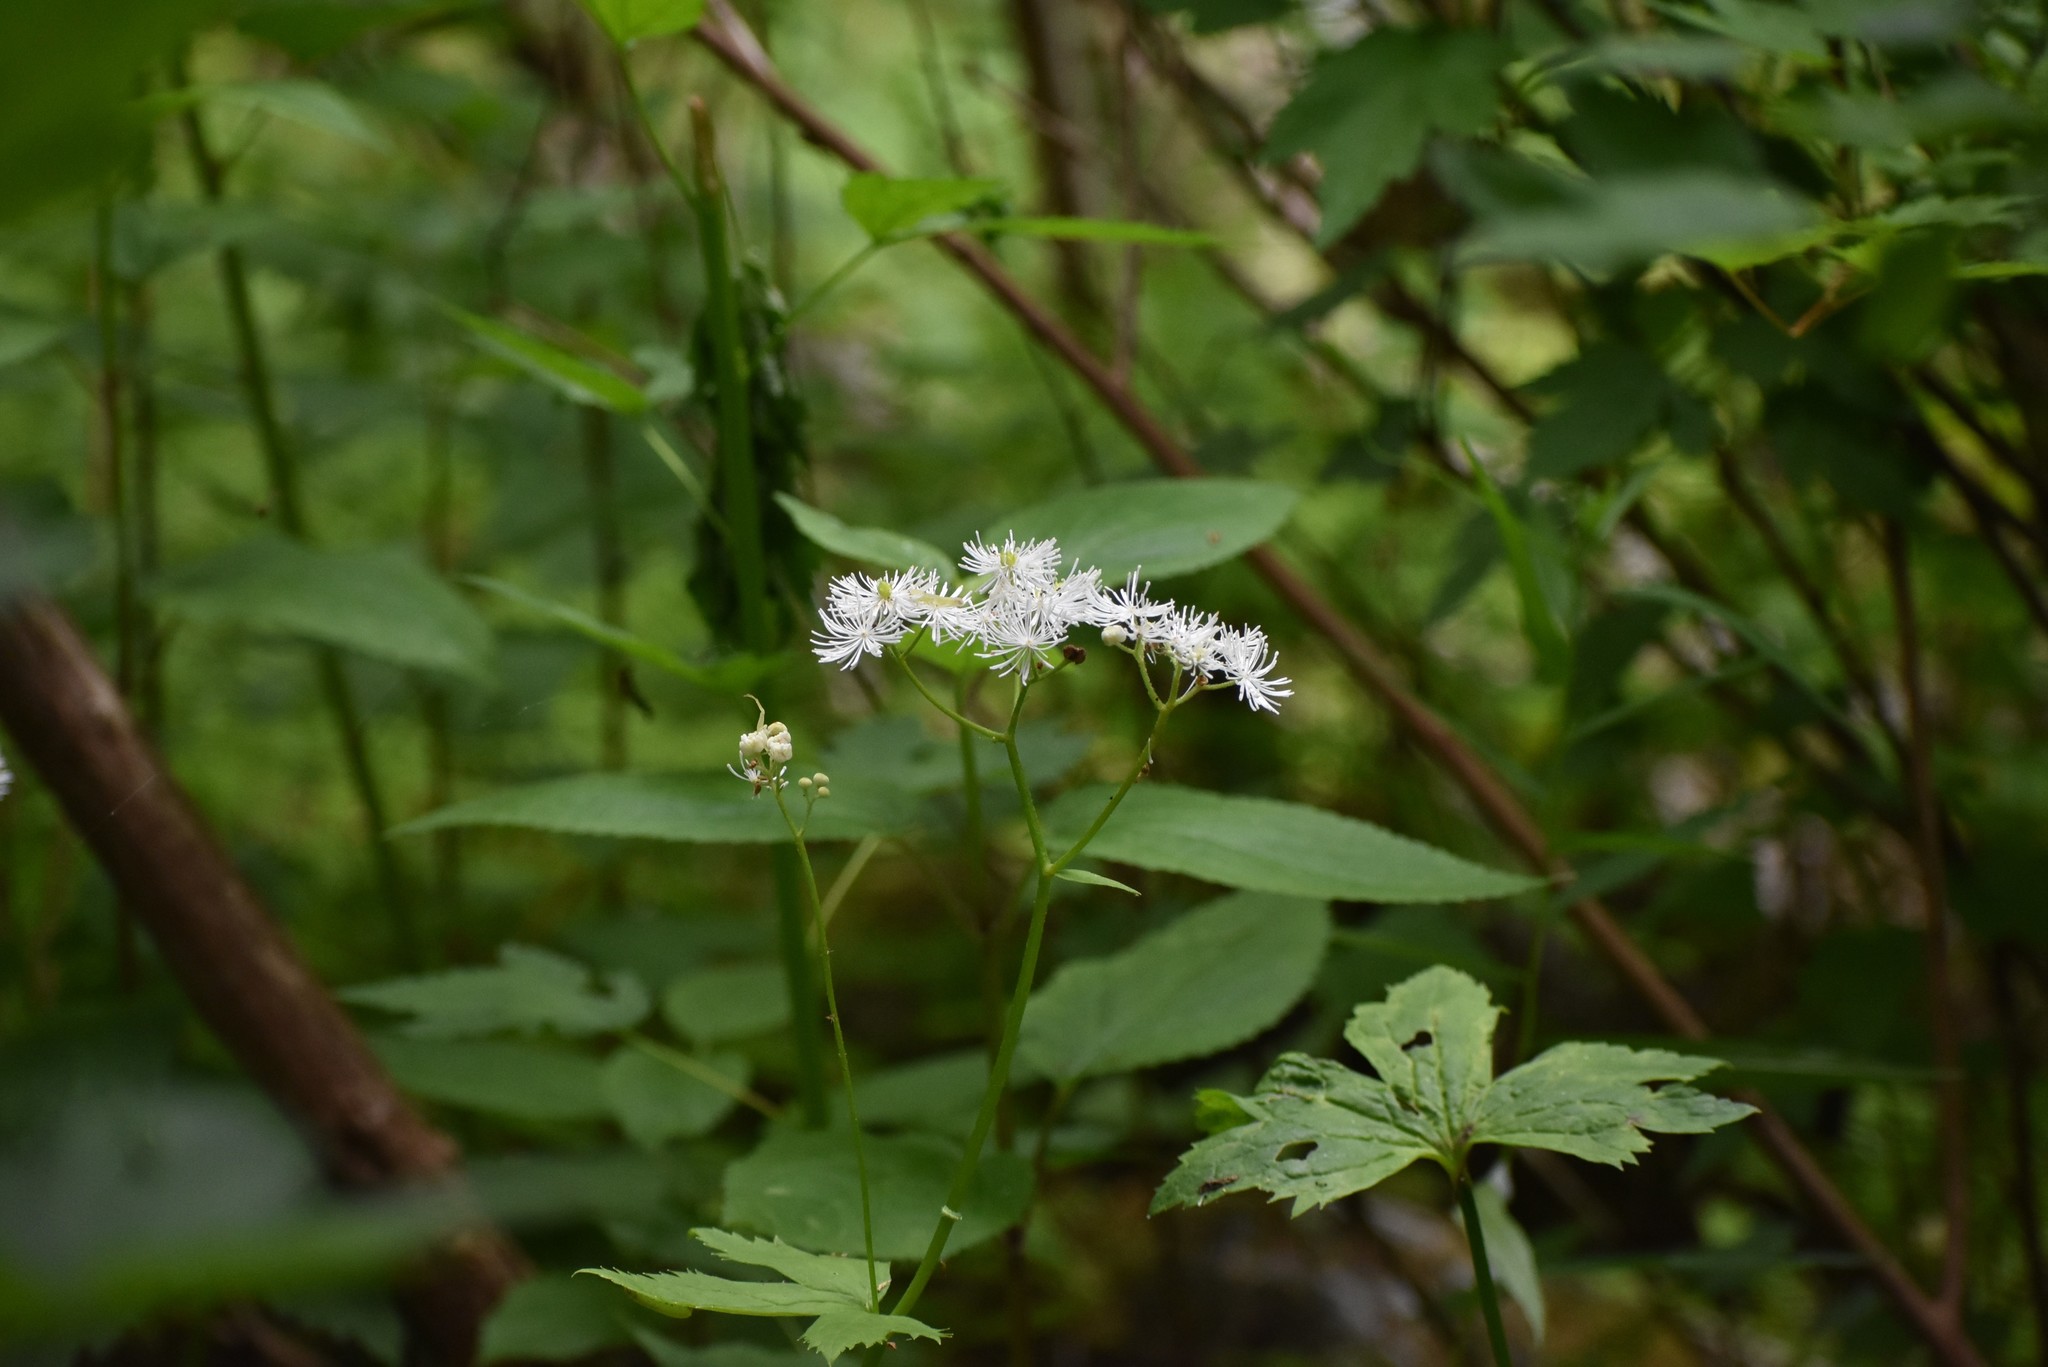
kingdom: Plantae
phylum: Tracheophyta
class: Magnoliopsida
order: Ranunculales
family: Ranunculaceae
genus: Trautvetteria
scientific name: Trautvetteria carolinensis
